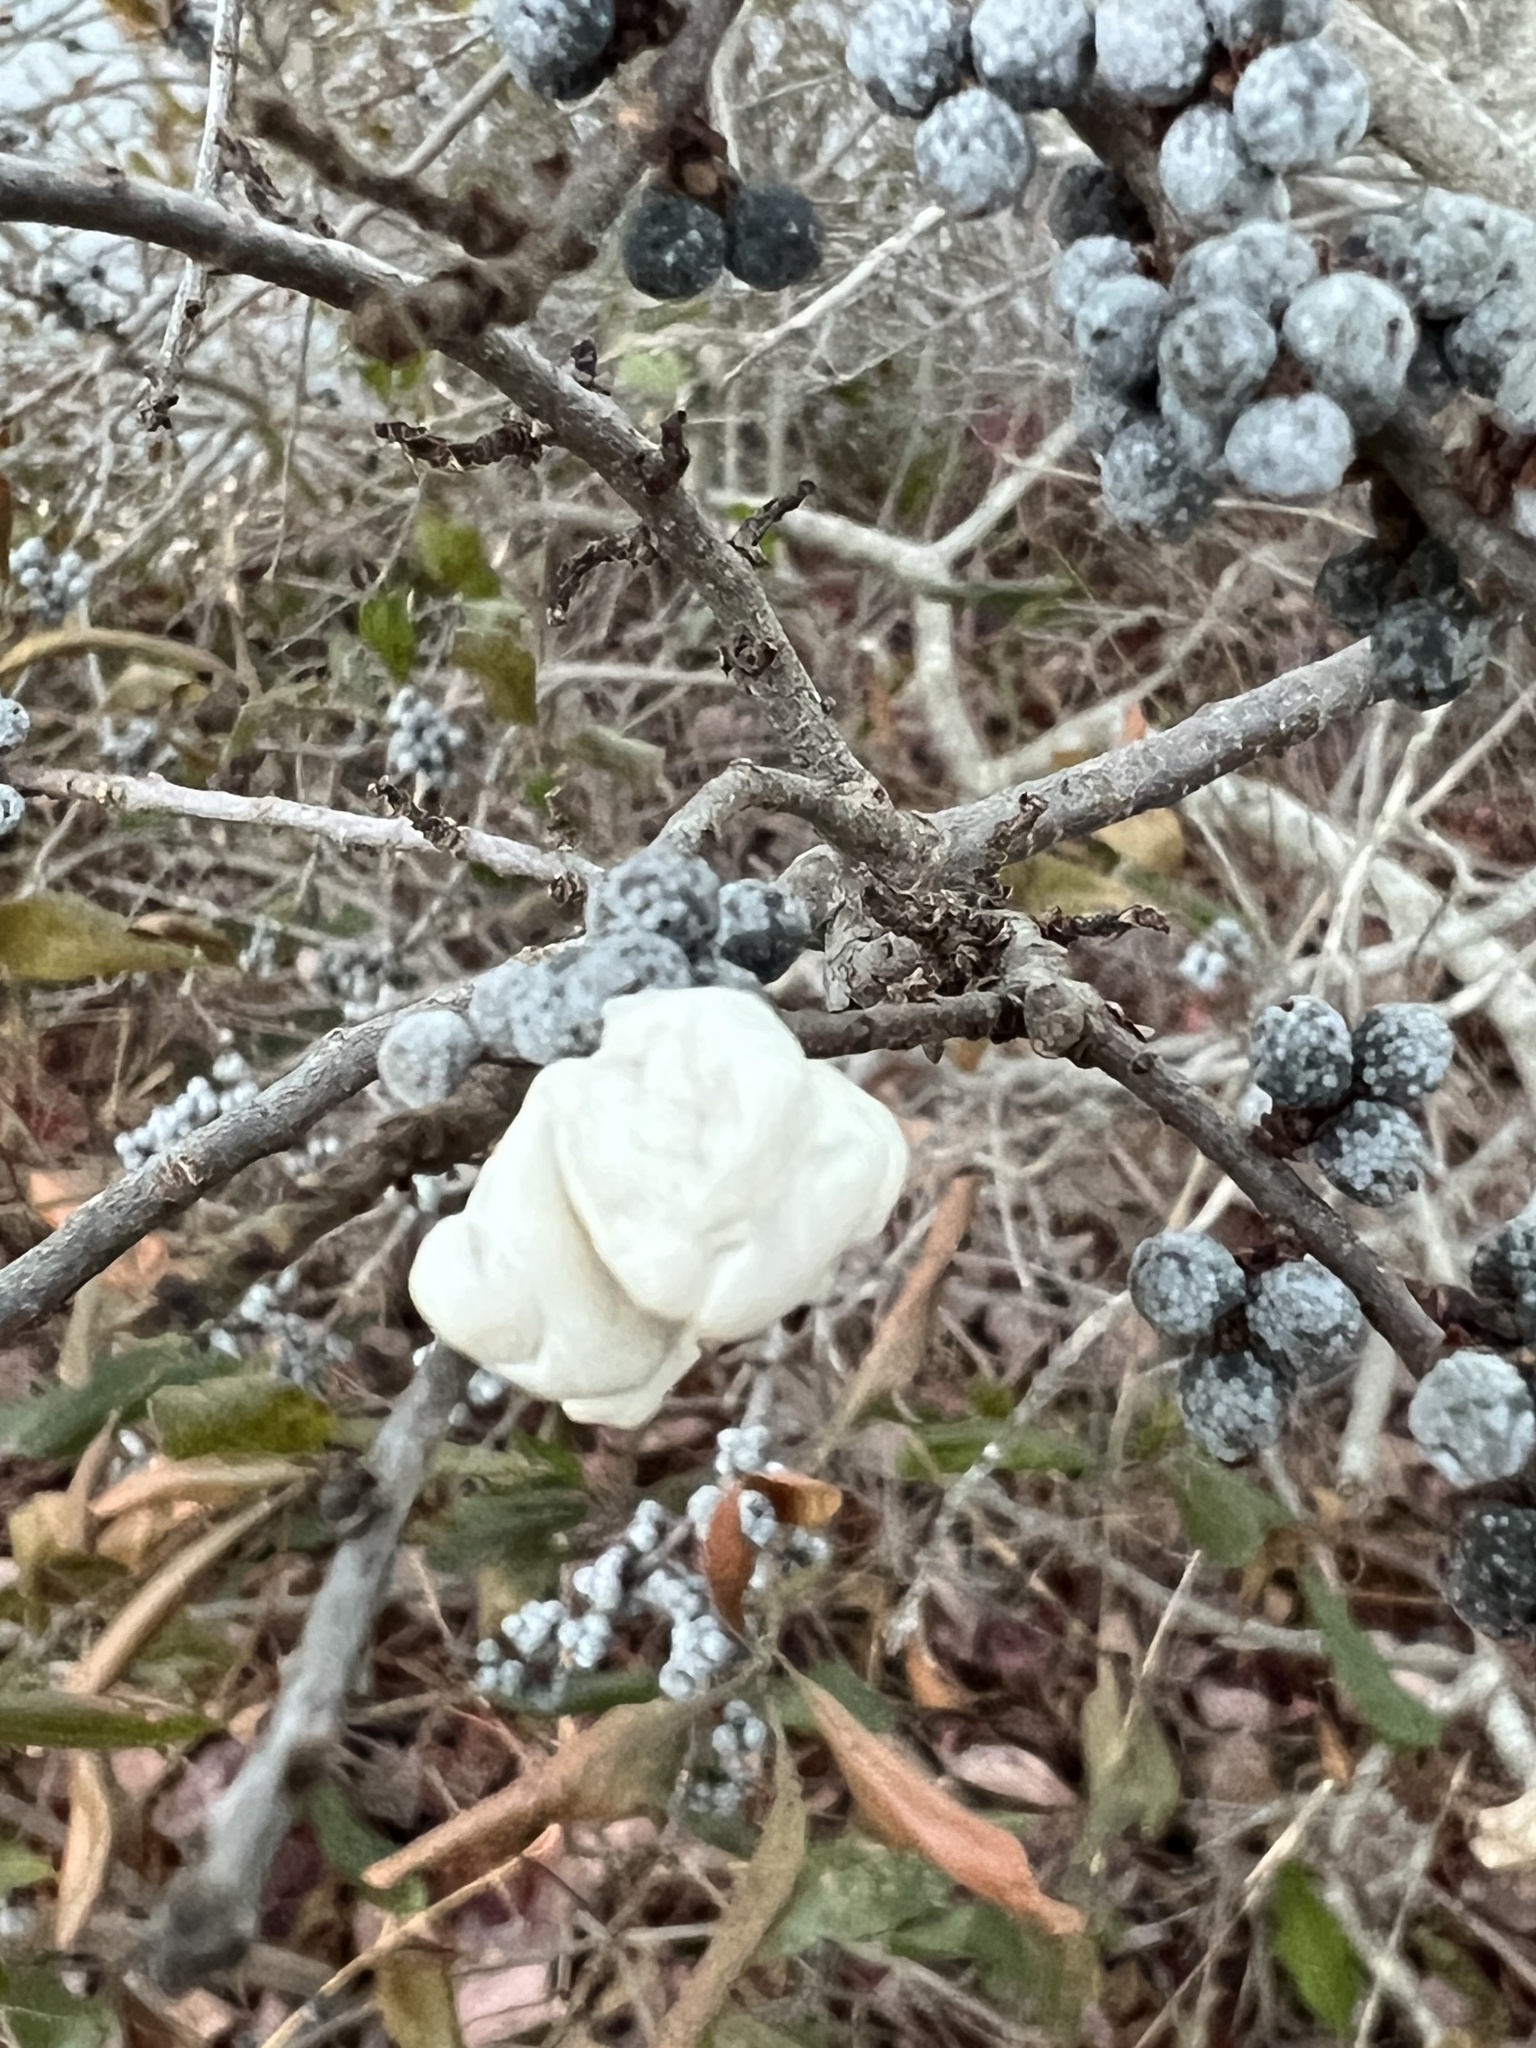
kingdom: Plantae
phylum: Tracheophyta
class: Magnoliopsida
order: Fagales
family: Myricaceae
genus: Morella
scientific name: Morella pensylvanica
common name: Northern bayberry
